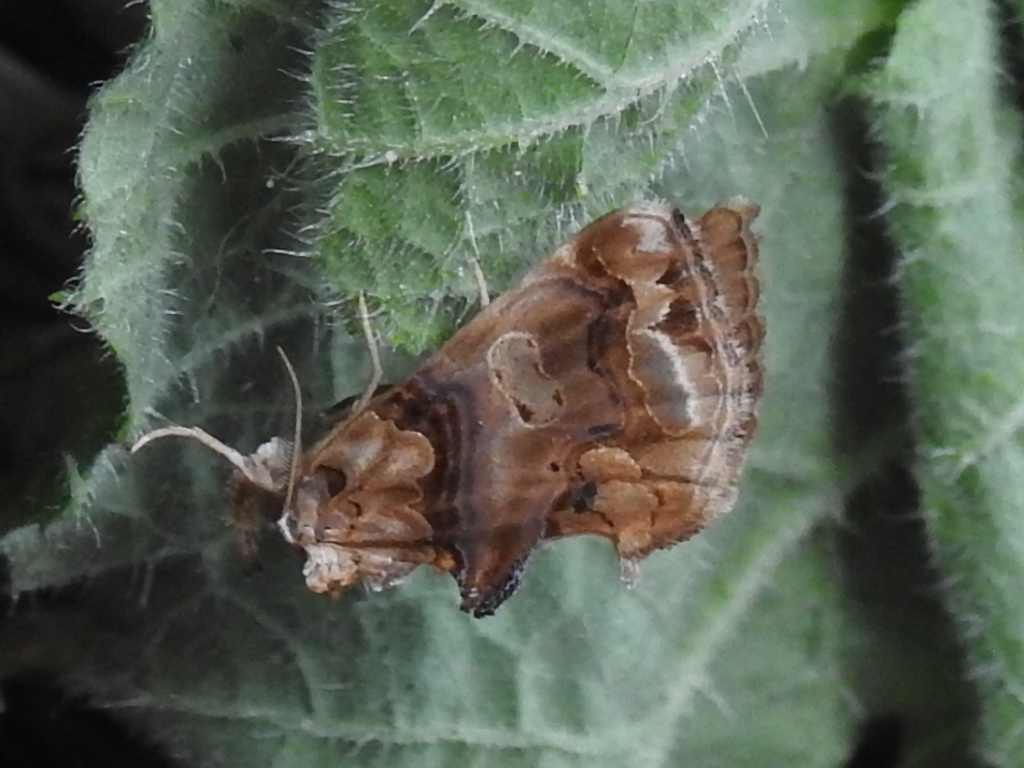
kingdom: Animalia
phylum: Arthropoda
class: Insecta
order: Lepidoptera
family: Erebidae
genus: Plusiodonta
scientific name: Plusiodonta compressipalpis
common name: Moonseed moth
